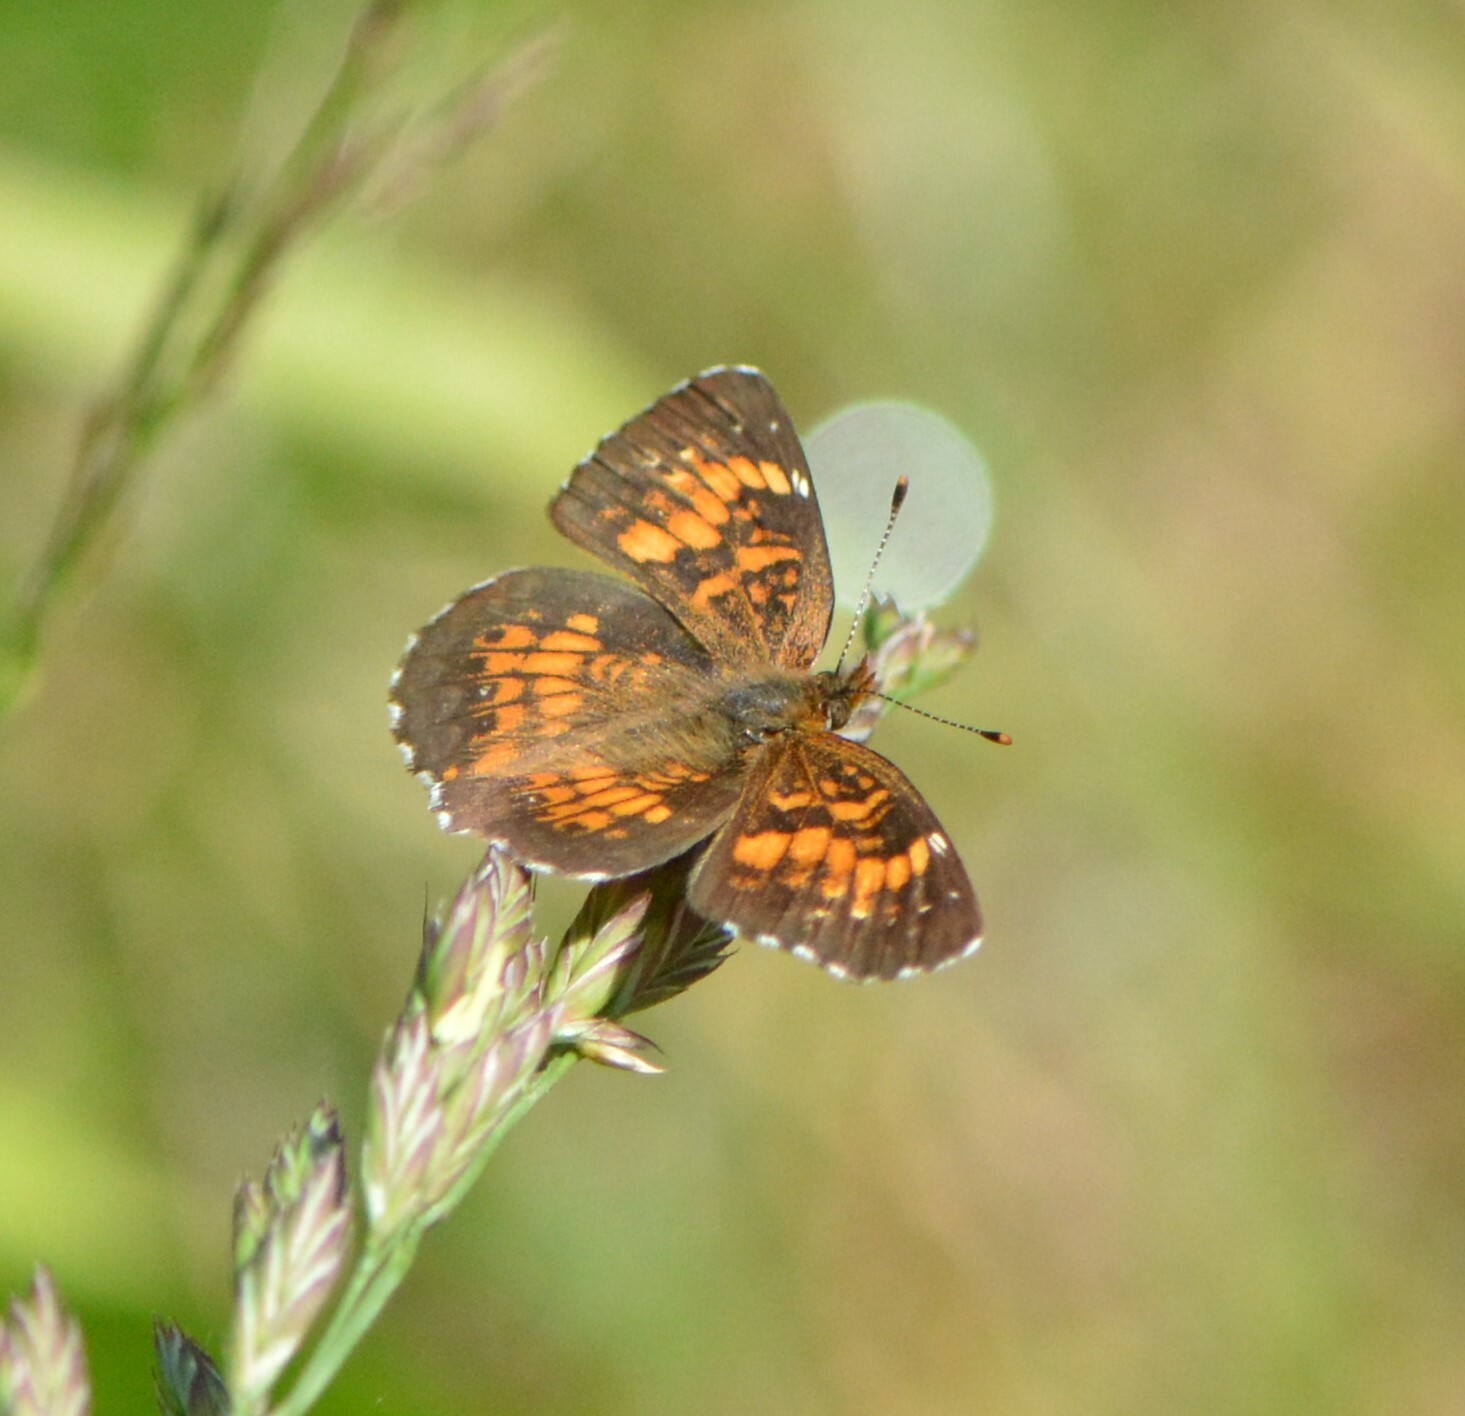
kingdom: Animalia
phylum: Arthropoda
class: Insecta
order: Lepidoptera
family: Nymphalidae
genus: Chlosyne
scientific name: Chlosyne harrisii
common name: Harris's checkerspot
